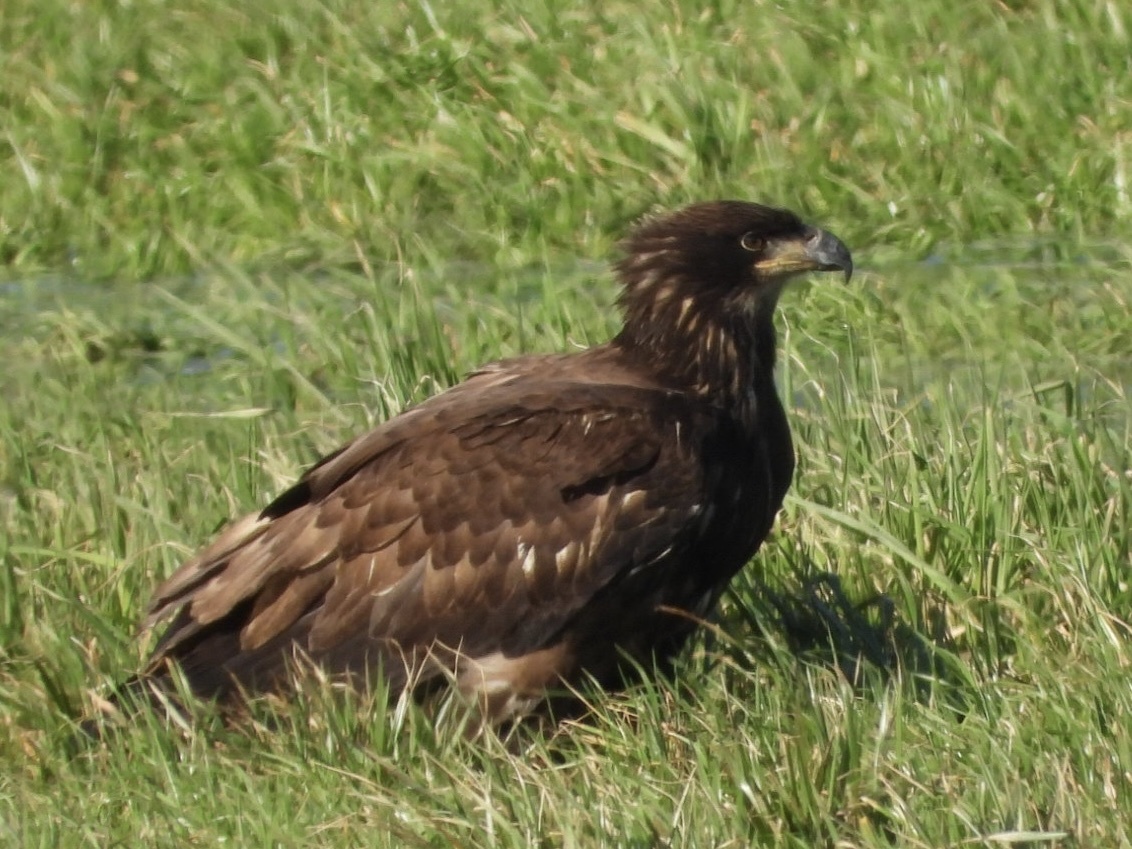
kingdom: Animalia
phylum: Chordata
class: Aves
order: Accipitriformes
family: Accipitridae
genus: Haliaeetus
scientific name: Haliaeetus leucocephalus
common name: Bald eagle
